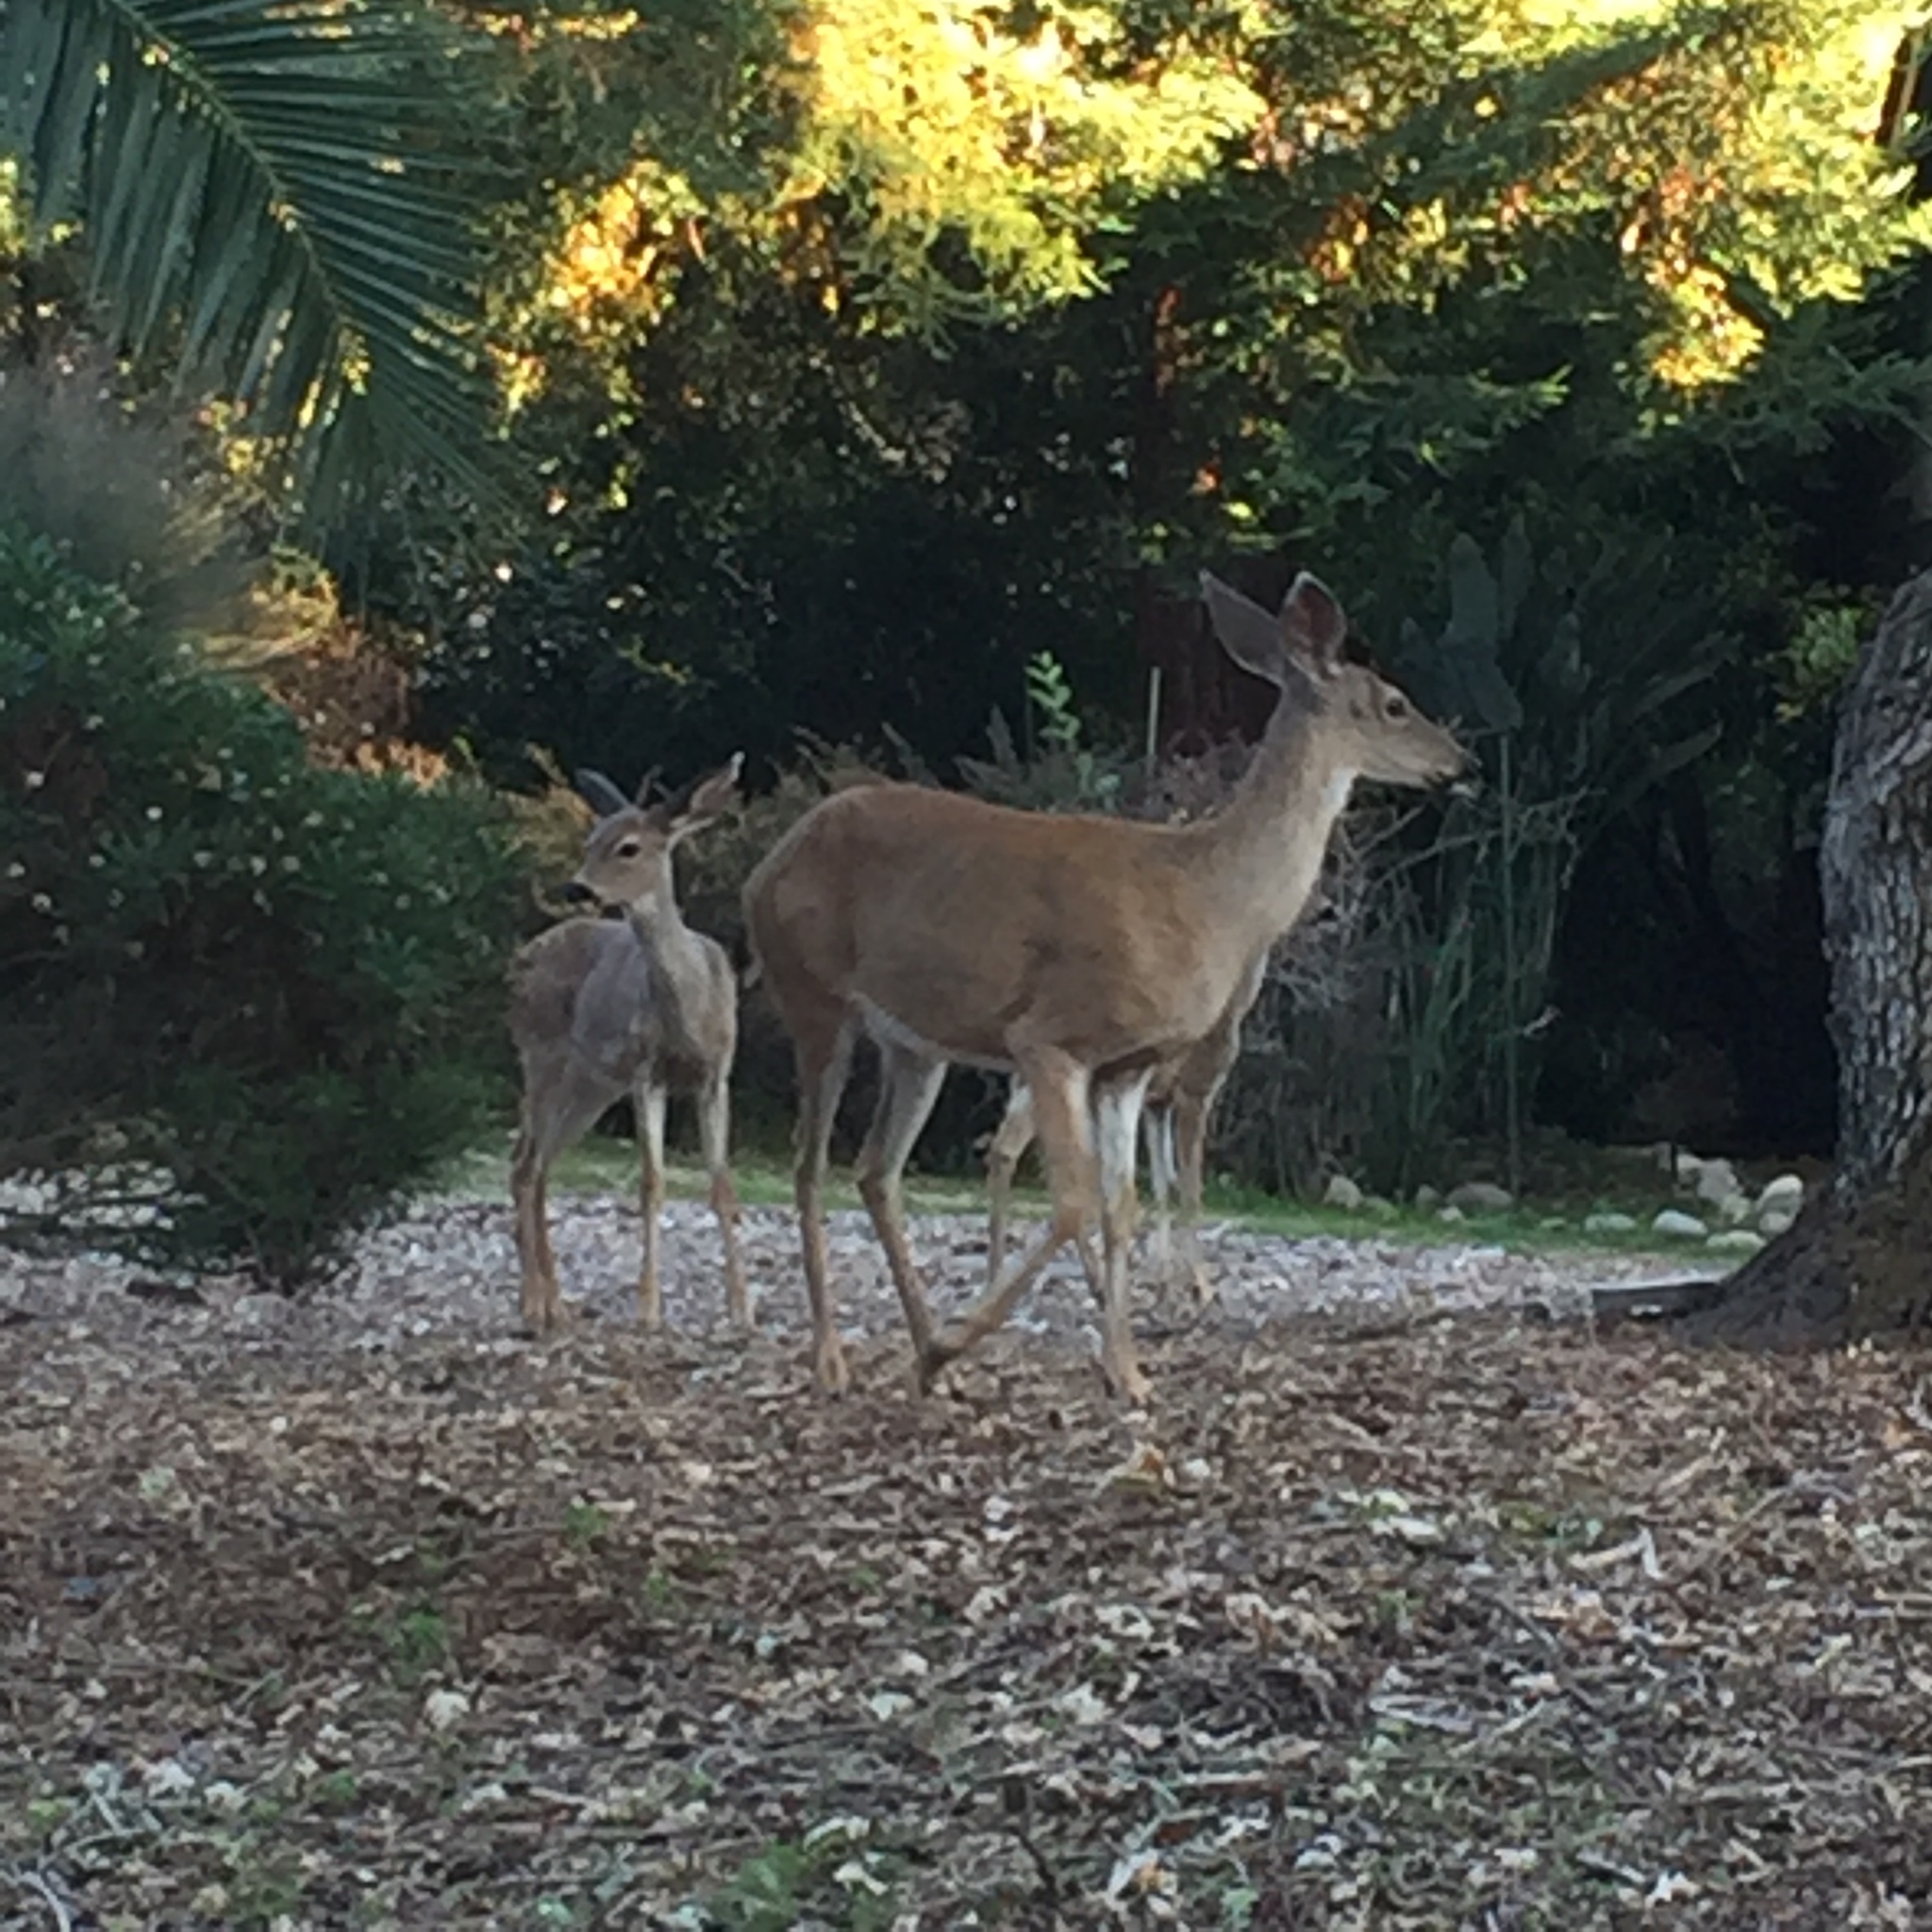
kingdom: Animalia
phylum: Chordata
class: Mammalia
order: Artiodactyla
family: Cervidae
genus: Odocoileus
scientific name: Odocoileus hemionus
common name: Mule deer
